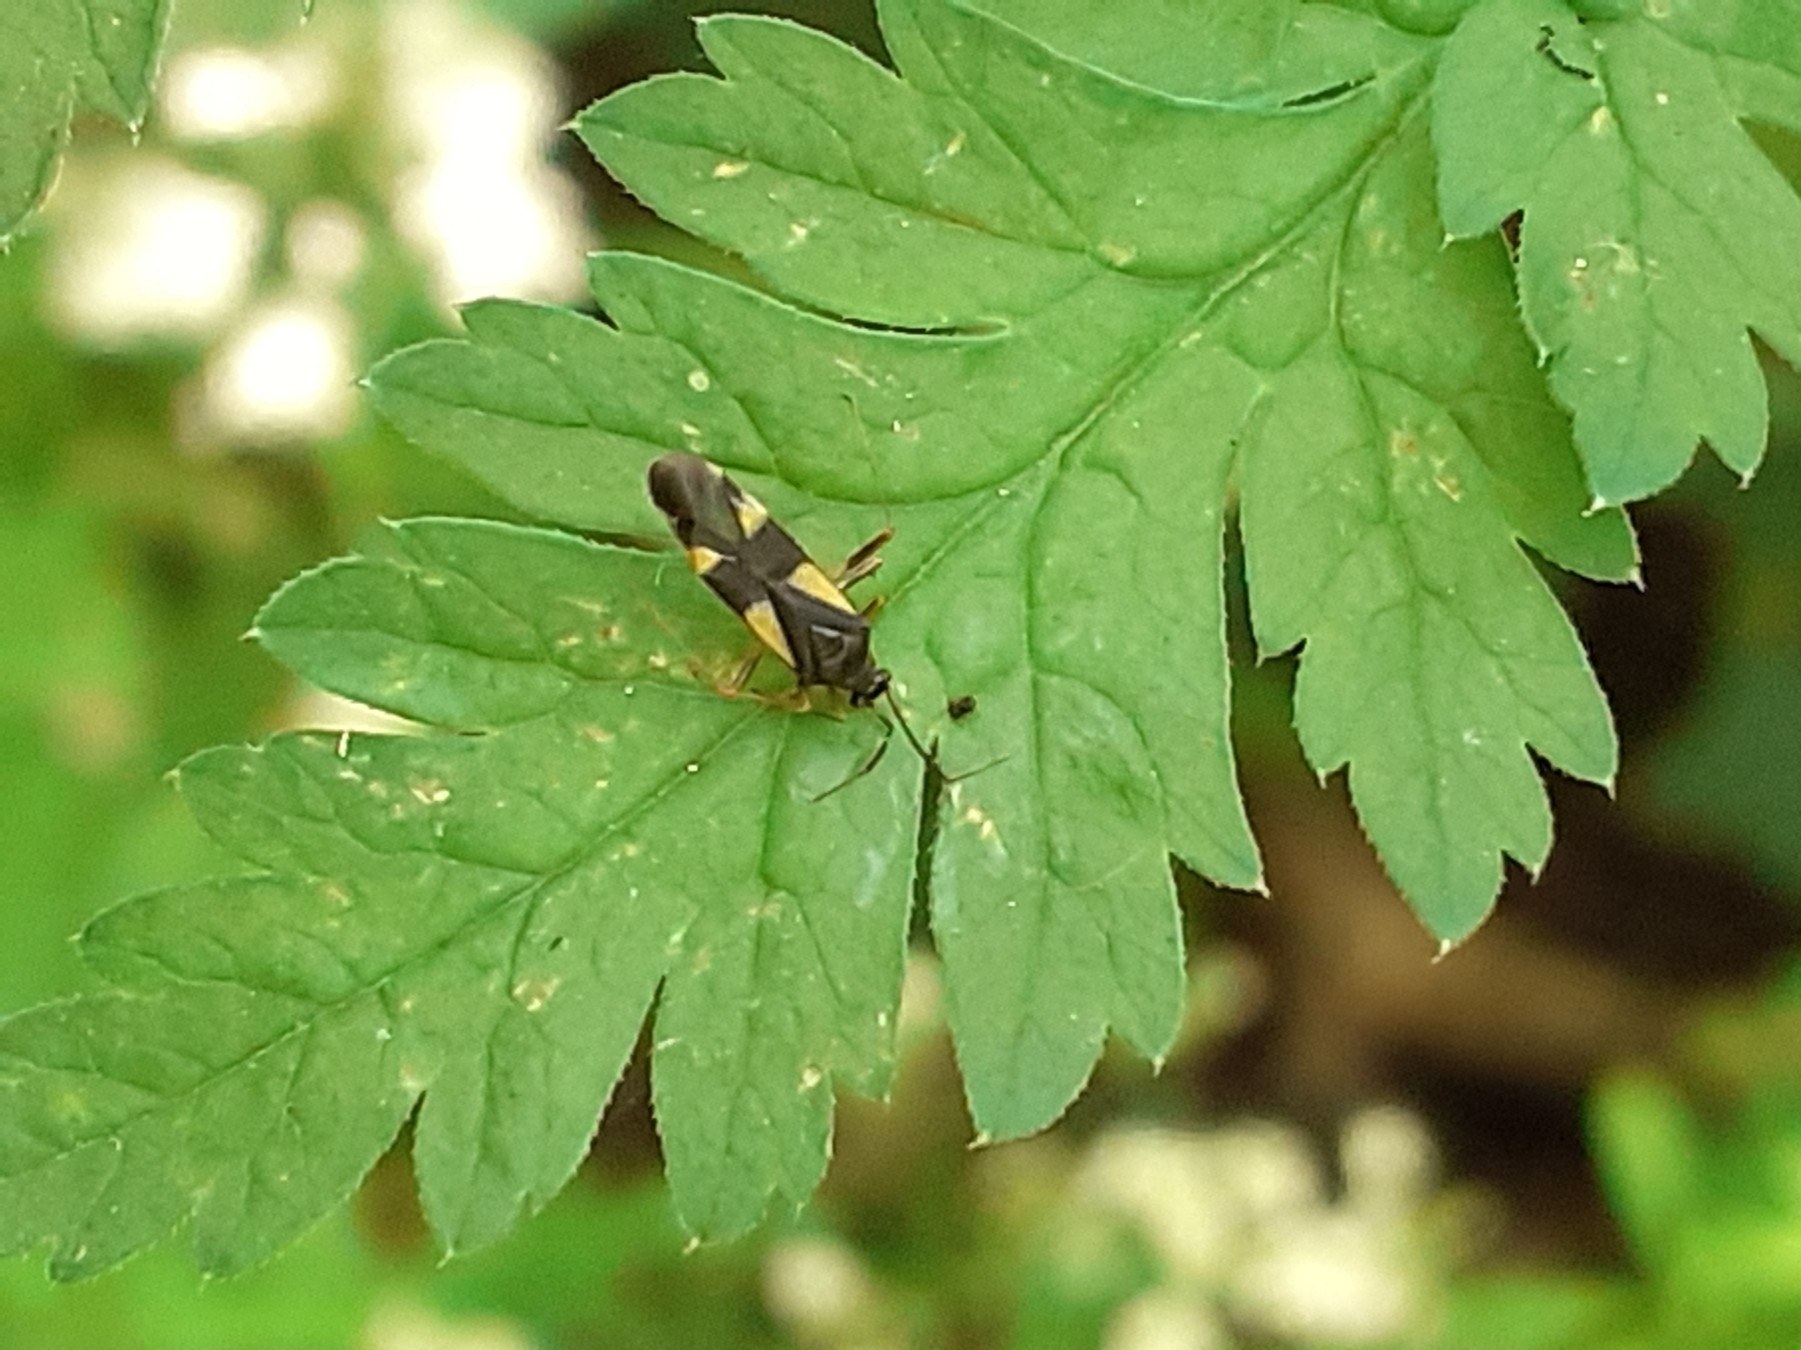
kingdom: Animalia
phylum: Arthropoda
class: Insecta
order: Hemiptera
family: Miridae
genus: Dryophilocoris
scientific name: Dryophilocoris flavoquadrimaculatus
